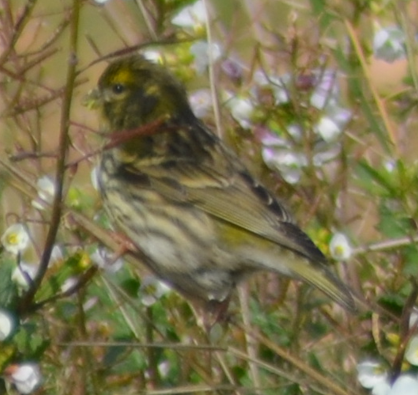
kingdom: Animalia
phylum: Chordata
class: Aves
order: Passeriformes
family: Fringillidae
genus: Serinus
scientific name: Serinus serinus
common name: European serin
